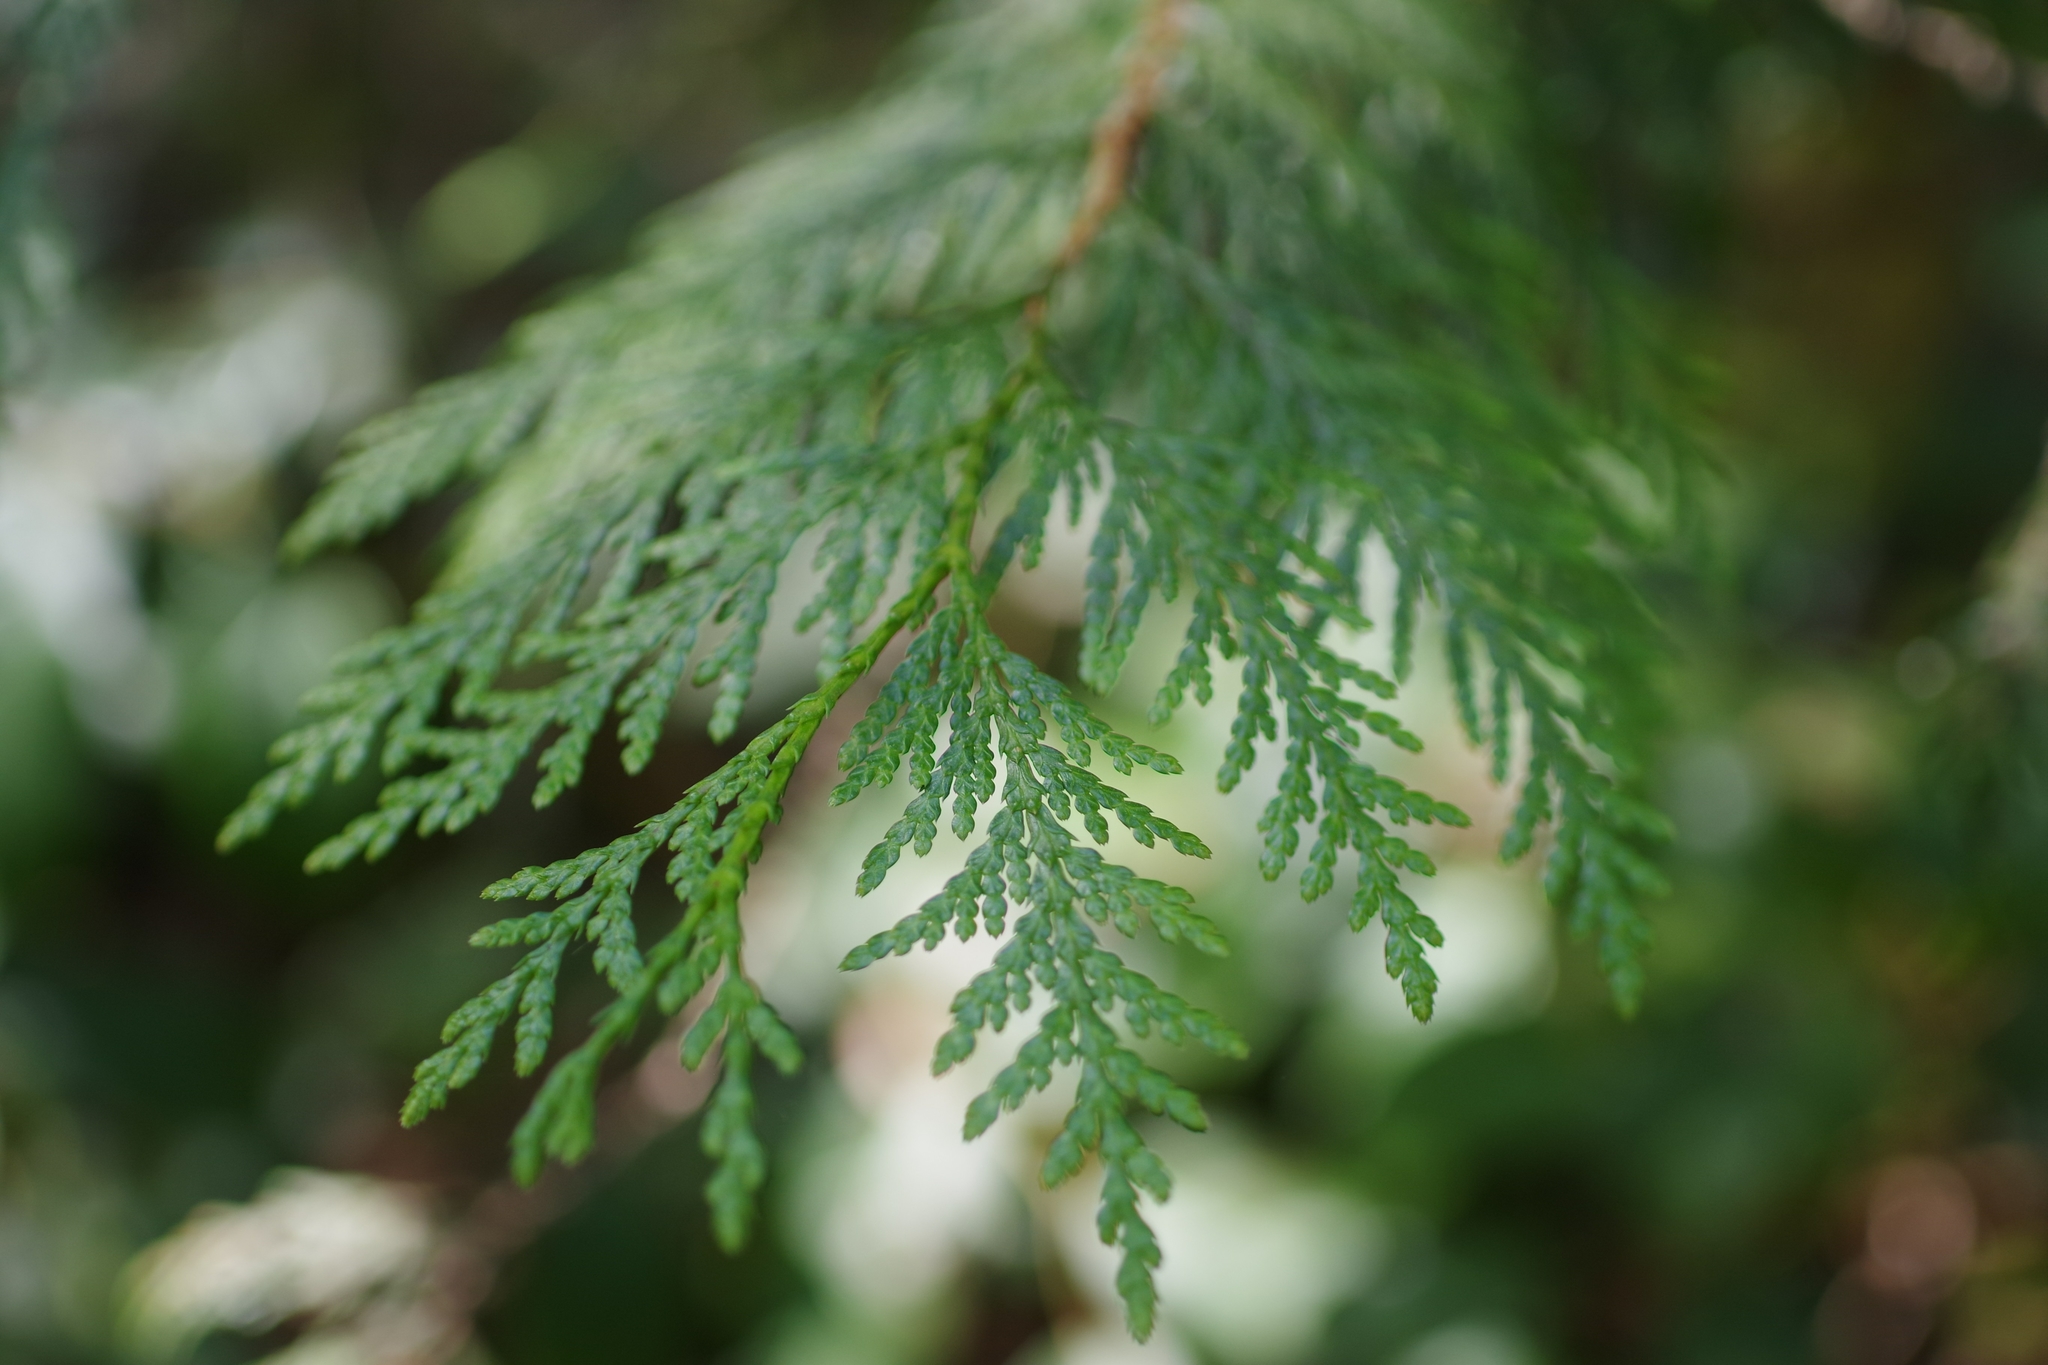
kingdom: Plantae
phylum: Tracheophyta
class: Pinopsida
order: Pinales
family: Cupressaceae
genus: Thuja
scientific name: Thuja plicata
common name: Western red-cedar
